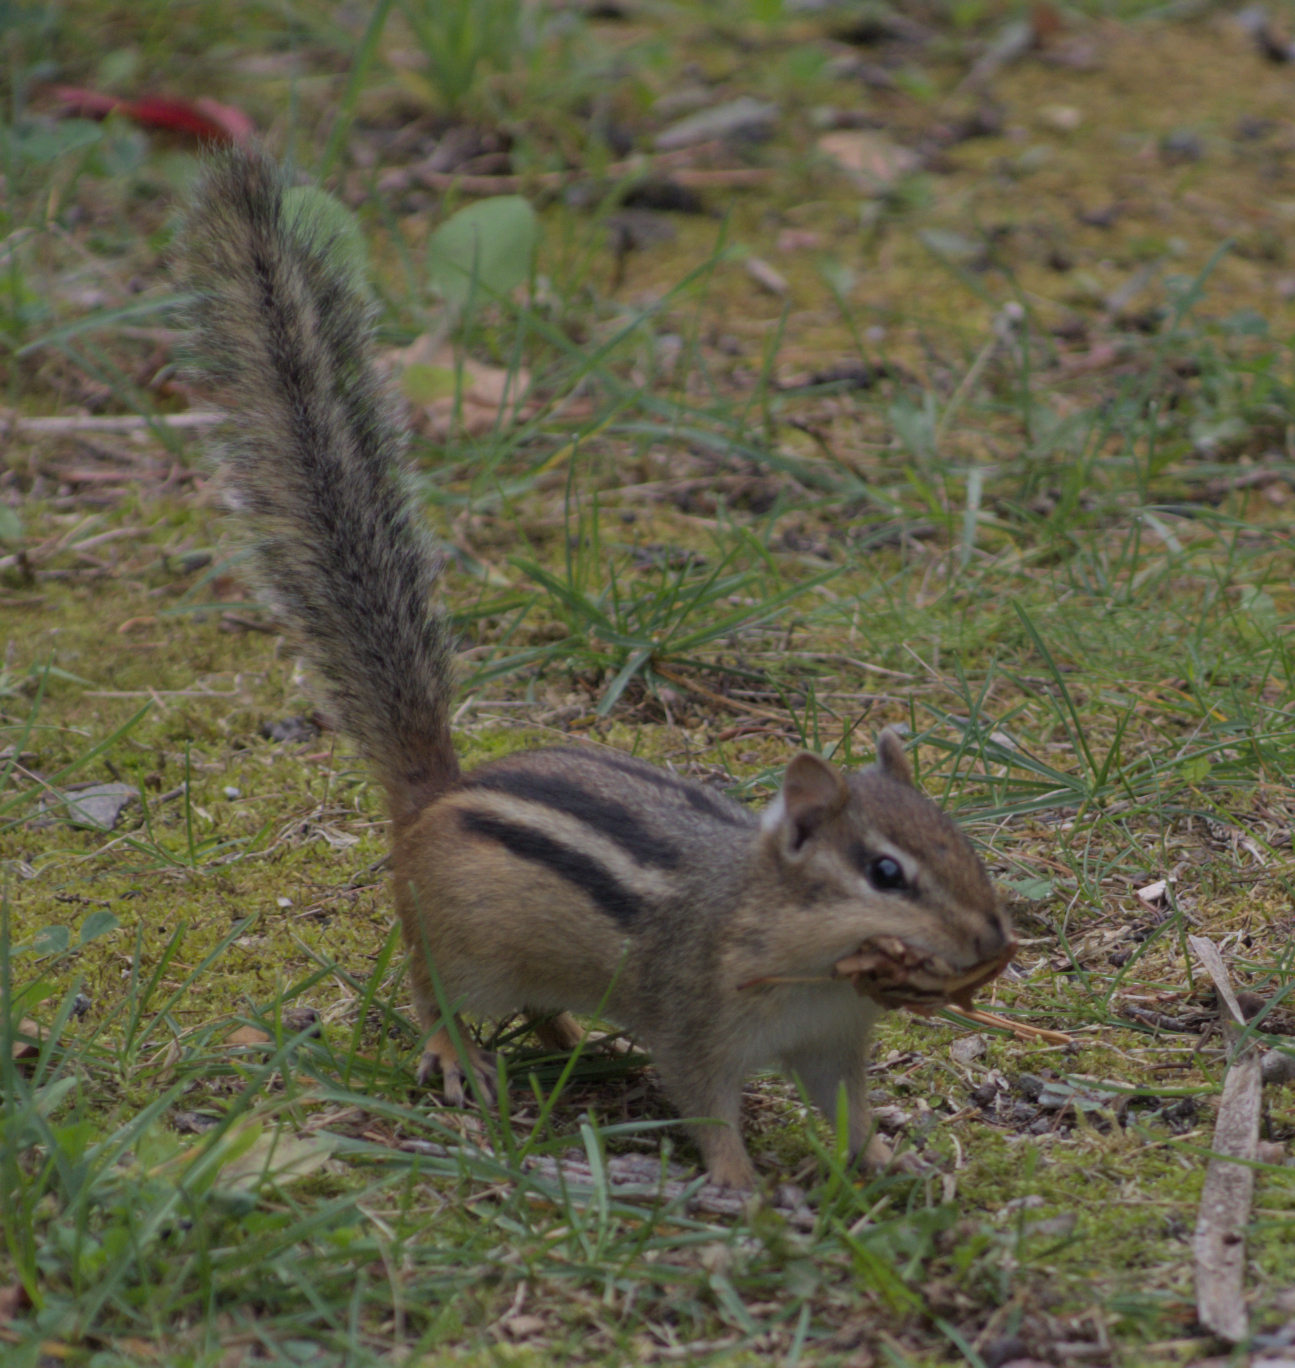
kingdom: Animalia
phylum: Chordata
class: Mammalia
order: Rodentia
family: Sciuridae
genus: Tamias
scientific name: Tamias striatus
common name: Eastern chipmunk
